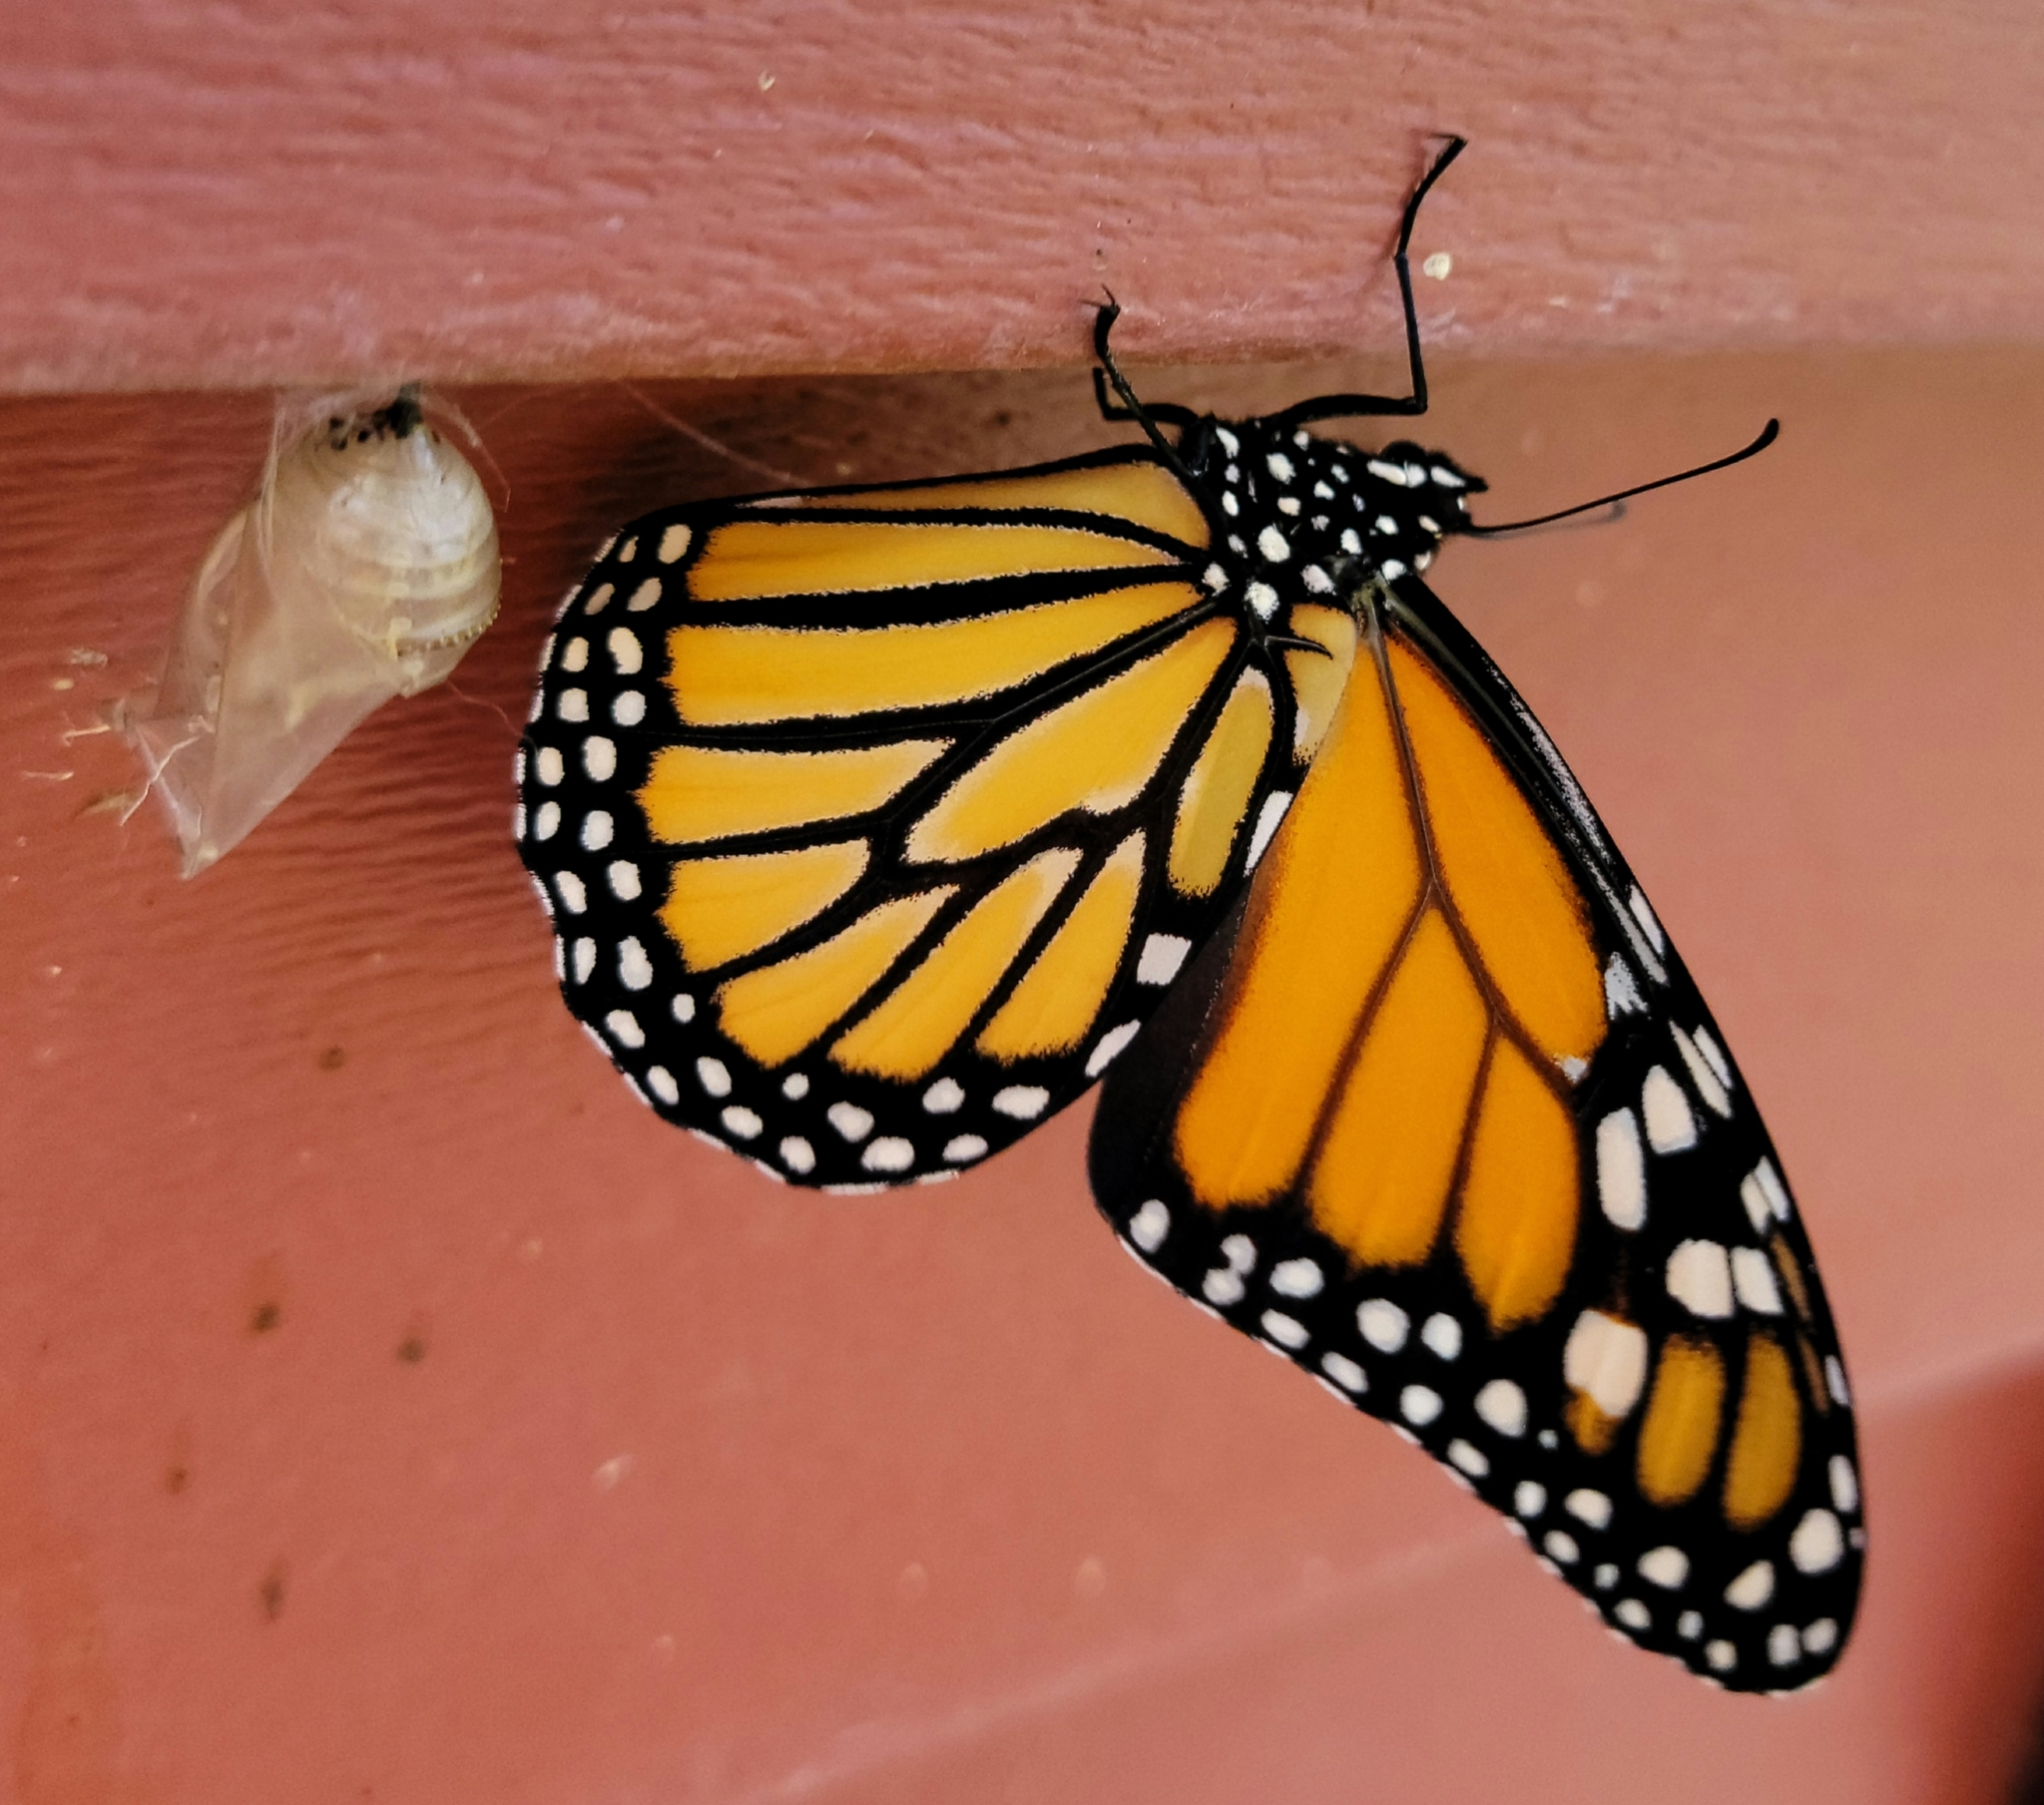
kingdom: Animalia
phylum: Arthropoda
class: Insecta
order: Lepidoptera
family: Nymphalidae
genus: Danaus
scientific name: Danaus plexippus
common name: Monarch
